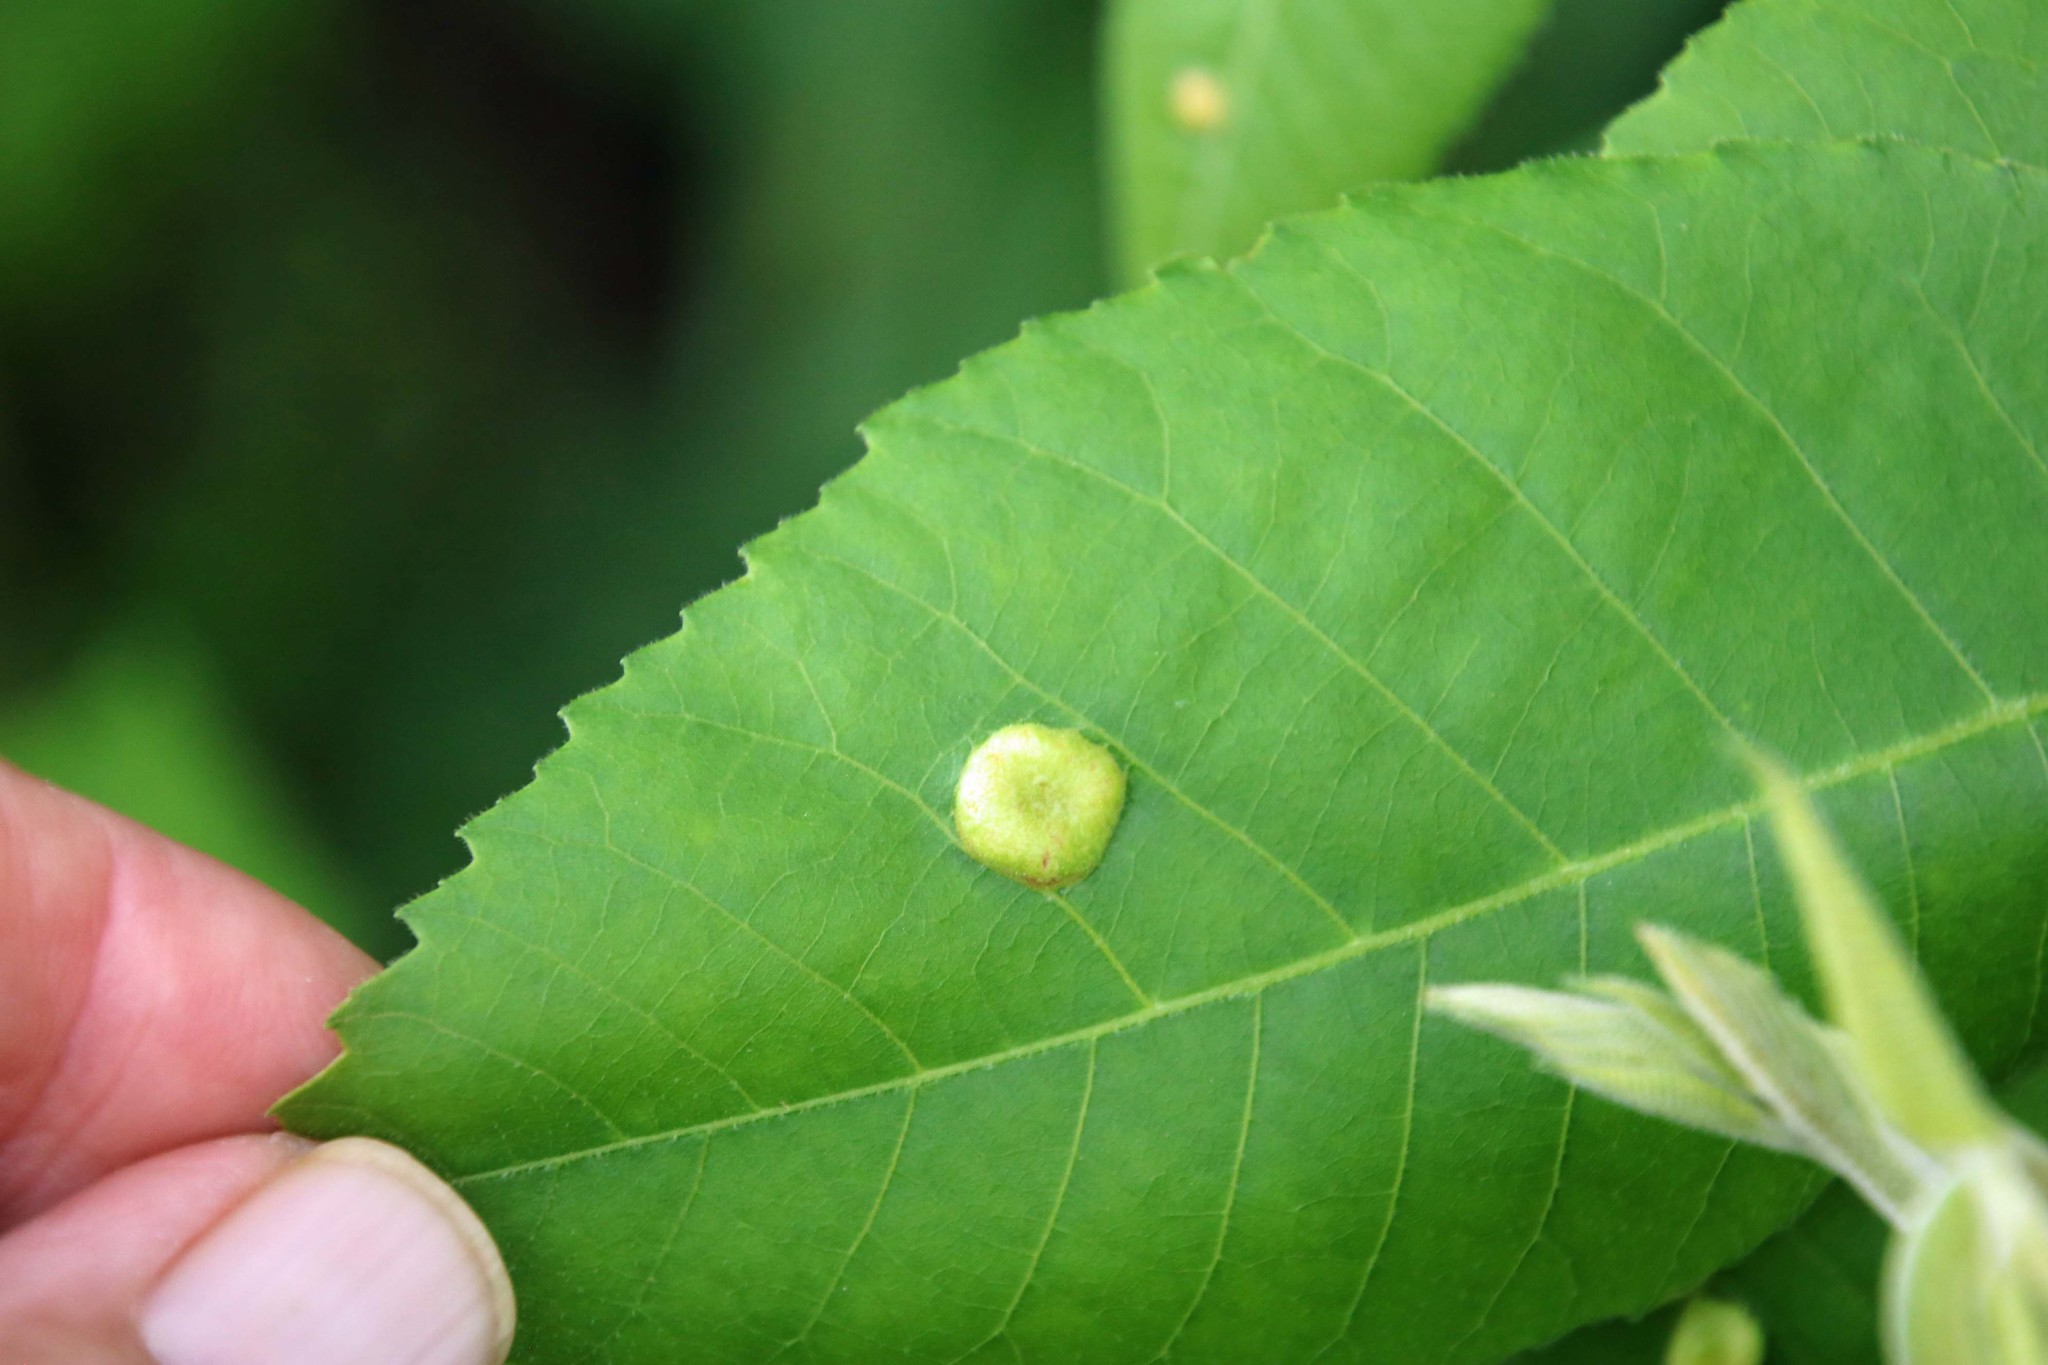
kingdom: Animalia
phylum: Arthropoda
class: Insecta
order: Hemiptera
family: Phylloxeridae
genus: Daktulosphaira
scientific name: Daktulosphaira notabilis
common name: Pecan leaf phylloxera
